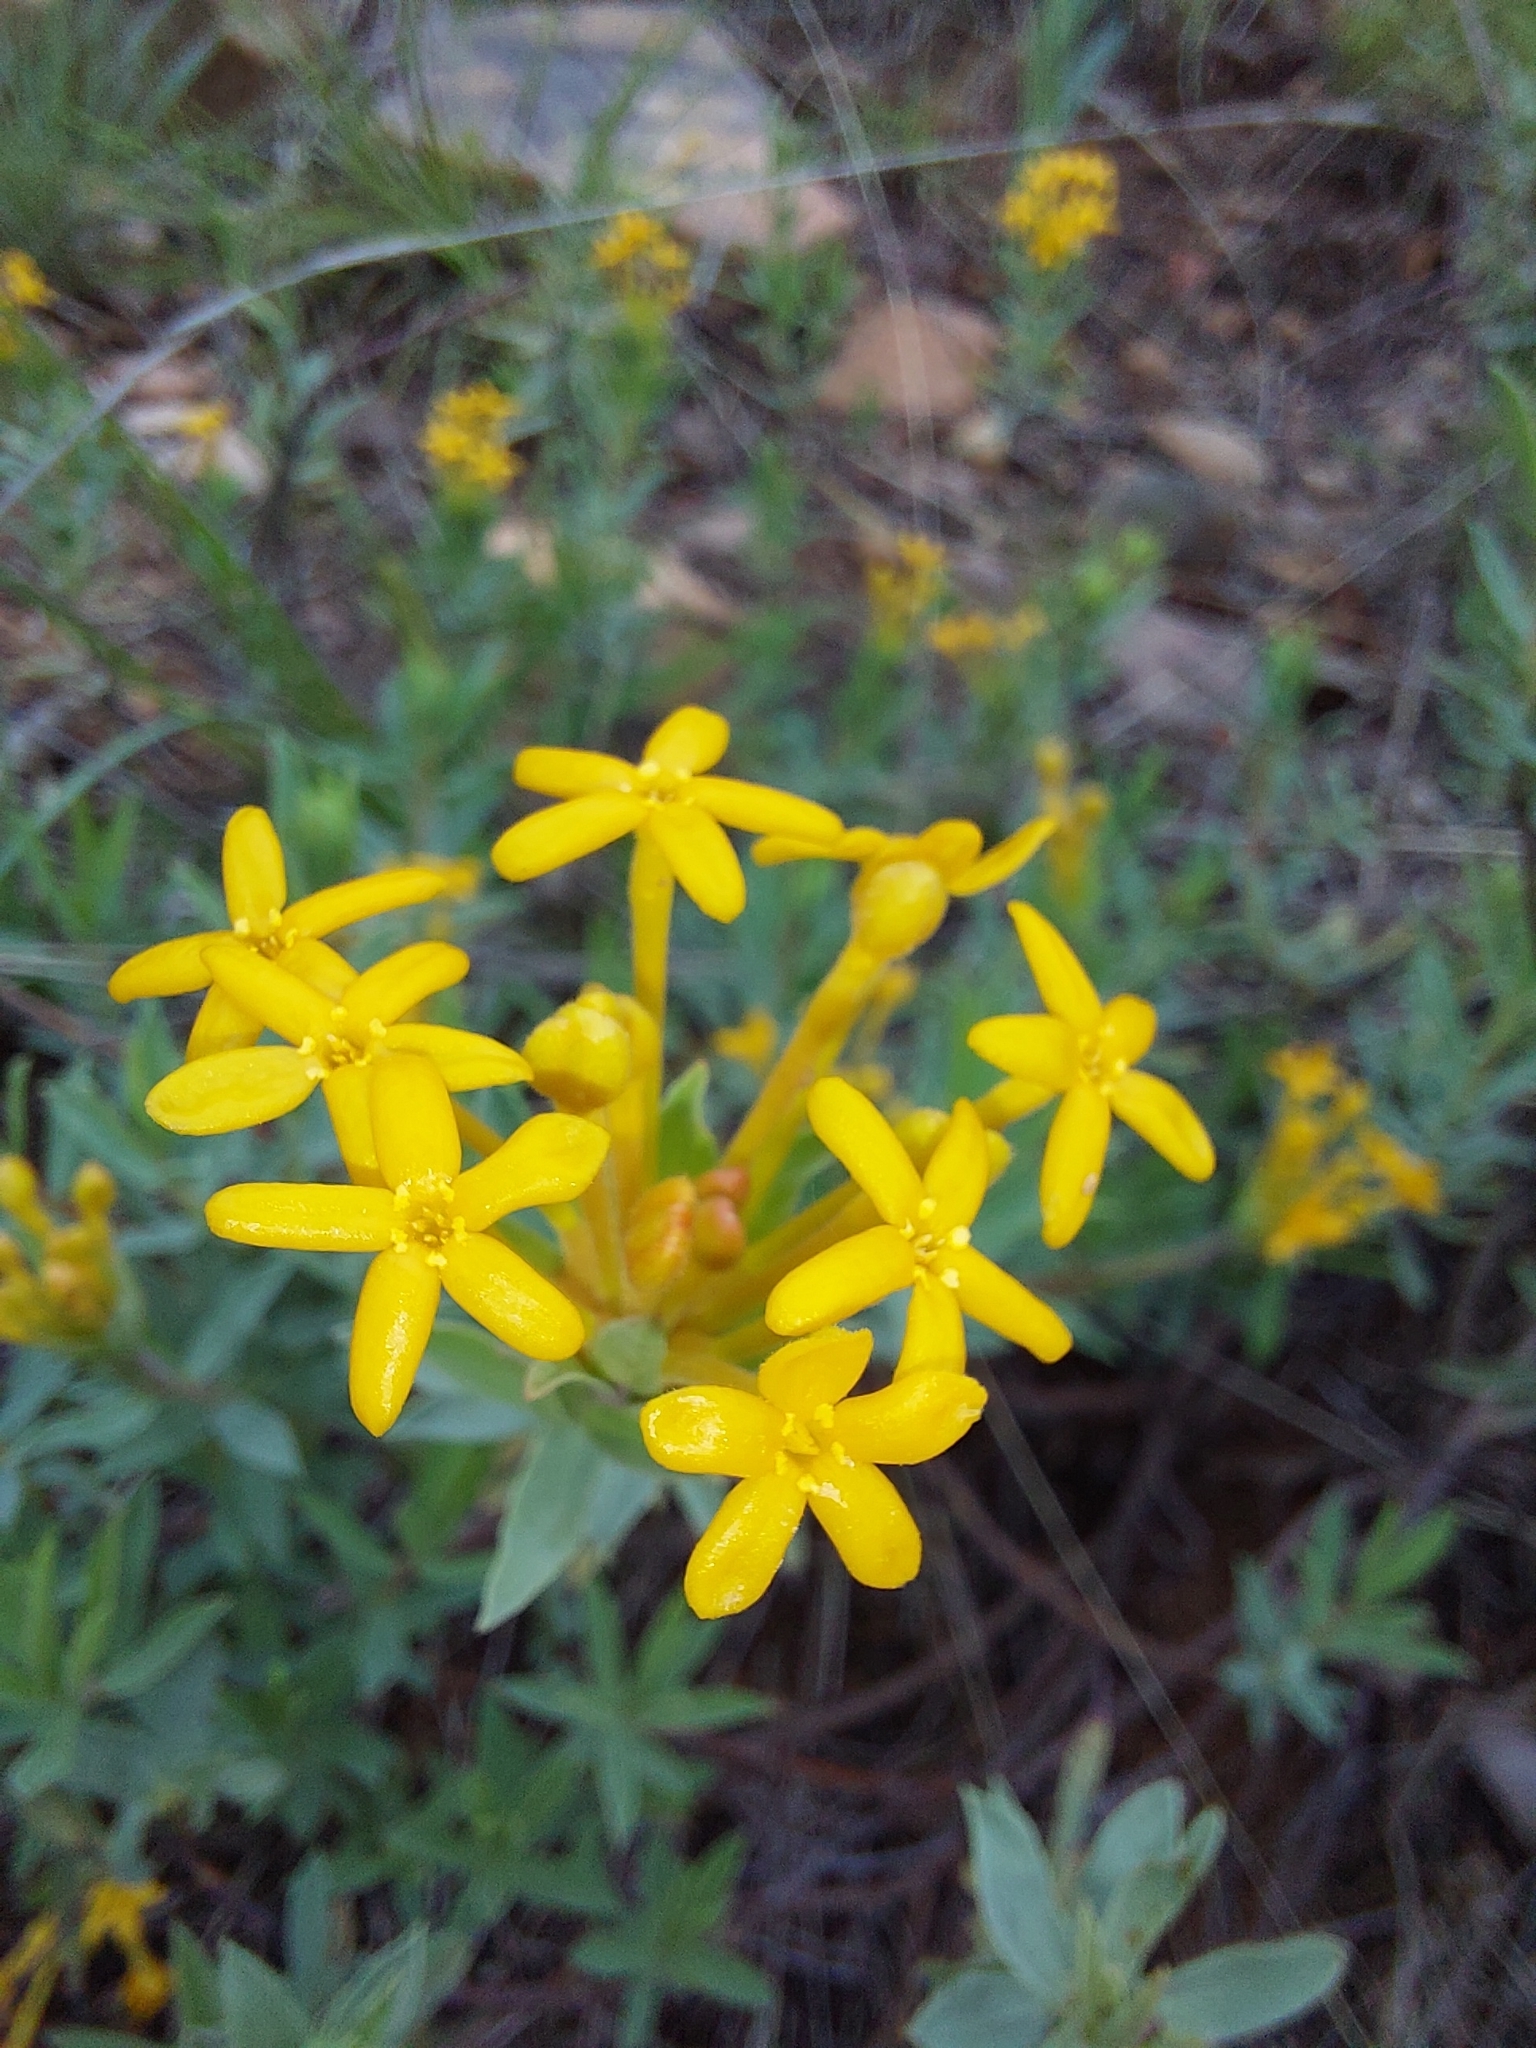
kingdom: Plantae
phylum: Tracheophyta
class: Magnoliopsida
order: Malvales
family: Thymelaeaceae
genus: Gnidia
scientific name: Gnidia capitata
